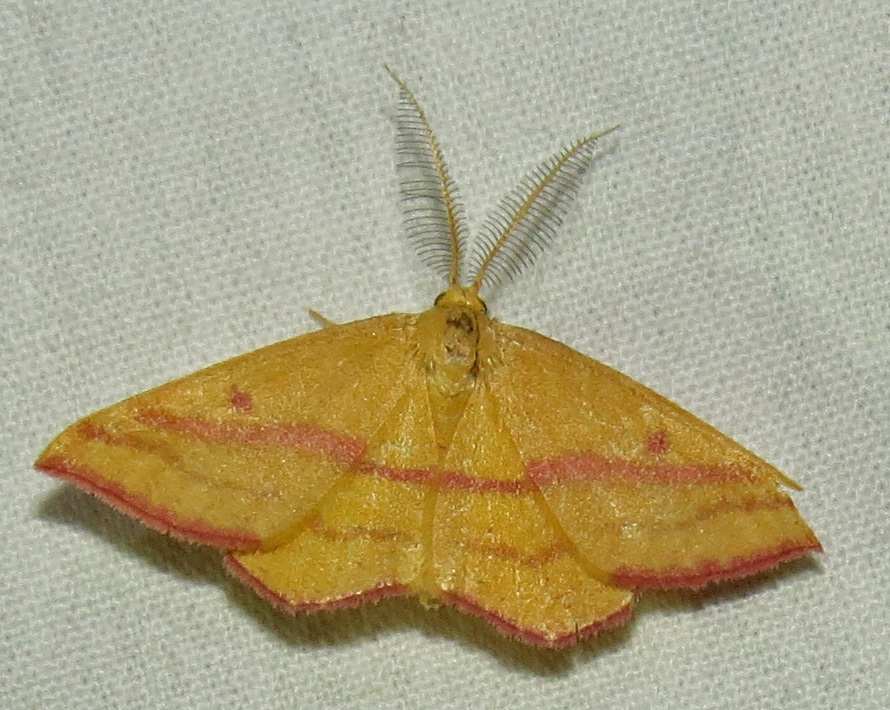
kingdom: Animalia
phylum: Arthropoda
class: Insecta
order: Lepidoptera
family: Geometridae
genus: Haematopis
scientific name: Haematopis grataria
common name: Chickweed geometer
